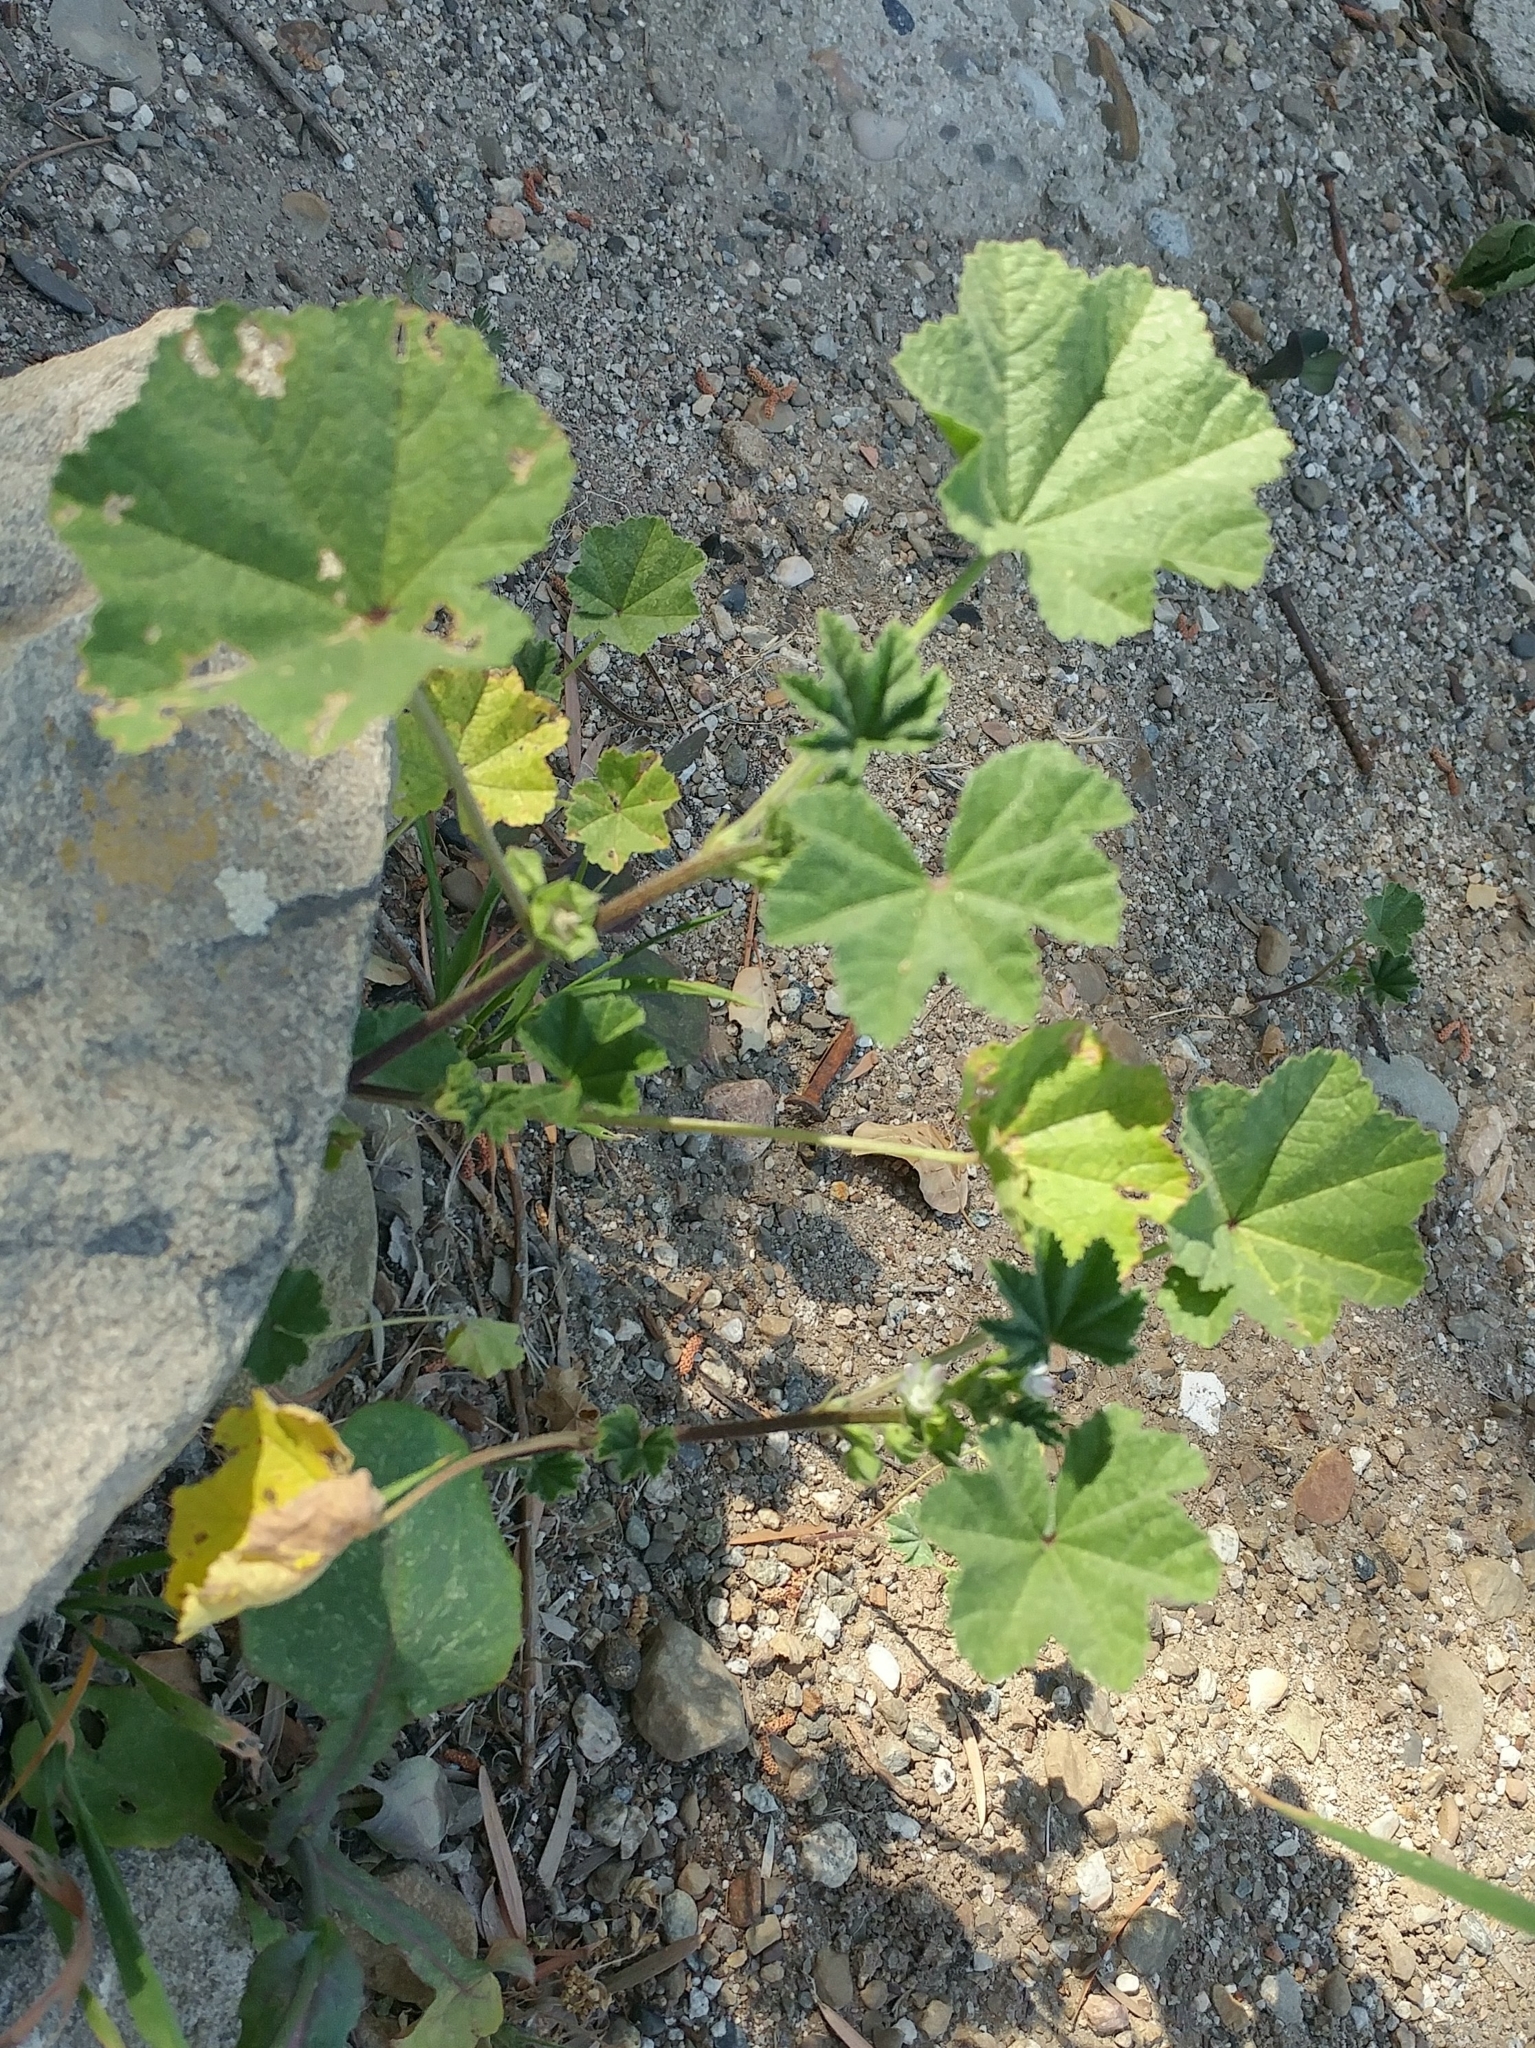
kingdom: Plantae
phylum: Tracheophyta
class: Magnoliopsida
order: Malvales
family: Malvaceae
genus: Malva
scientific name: Malva parviflora
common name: Least mallow
